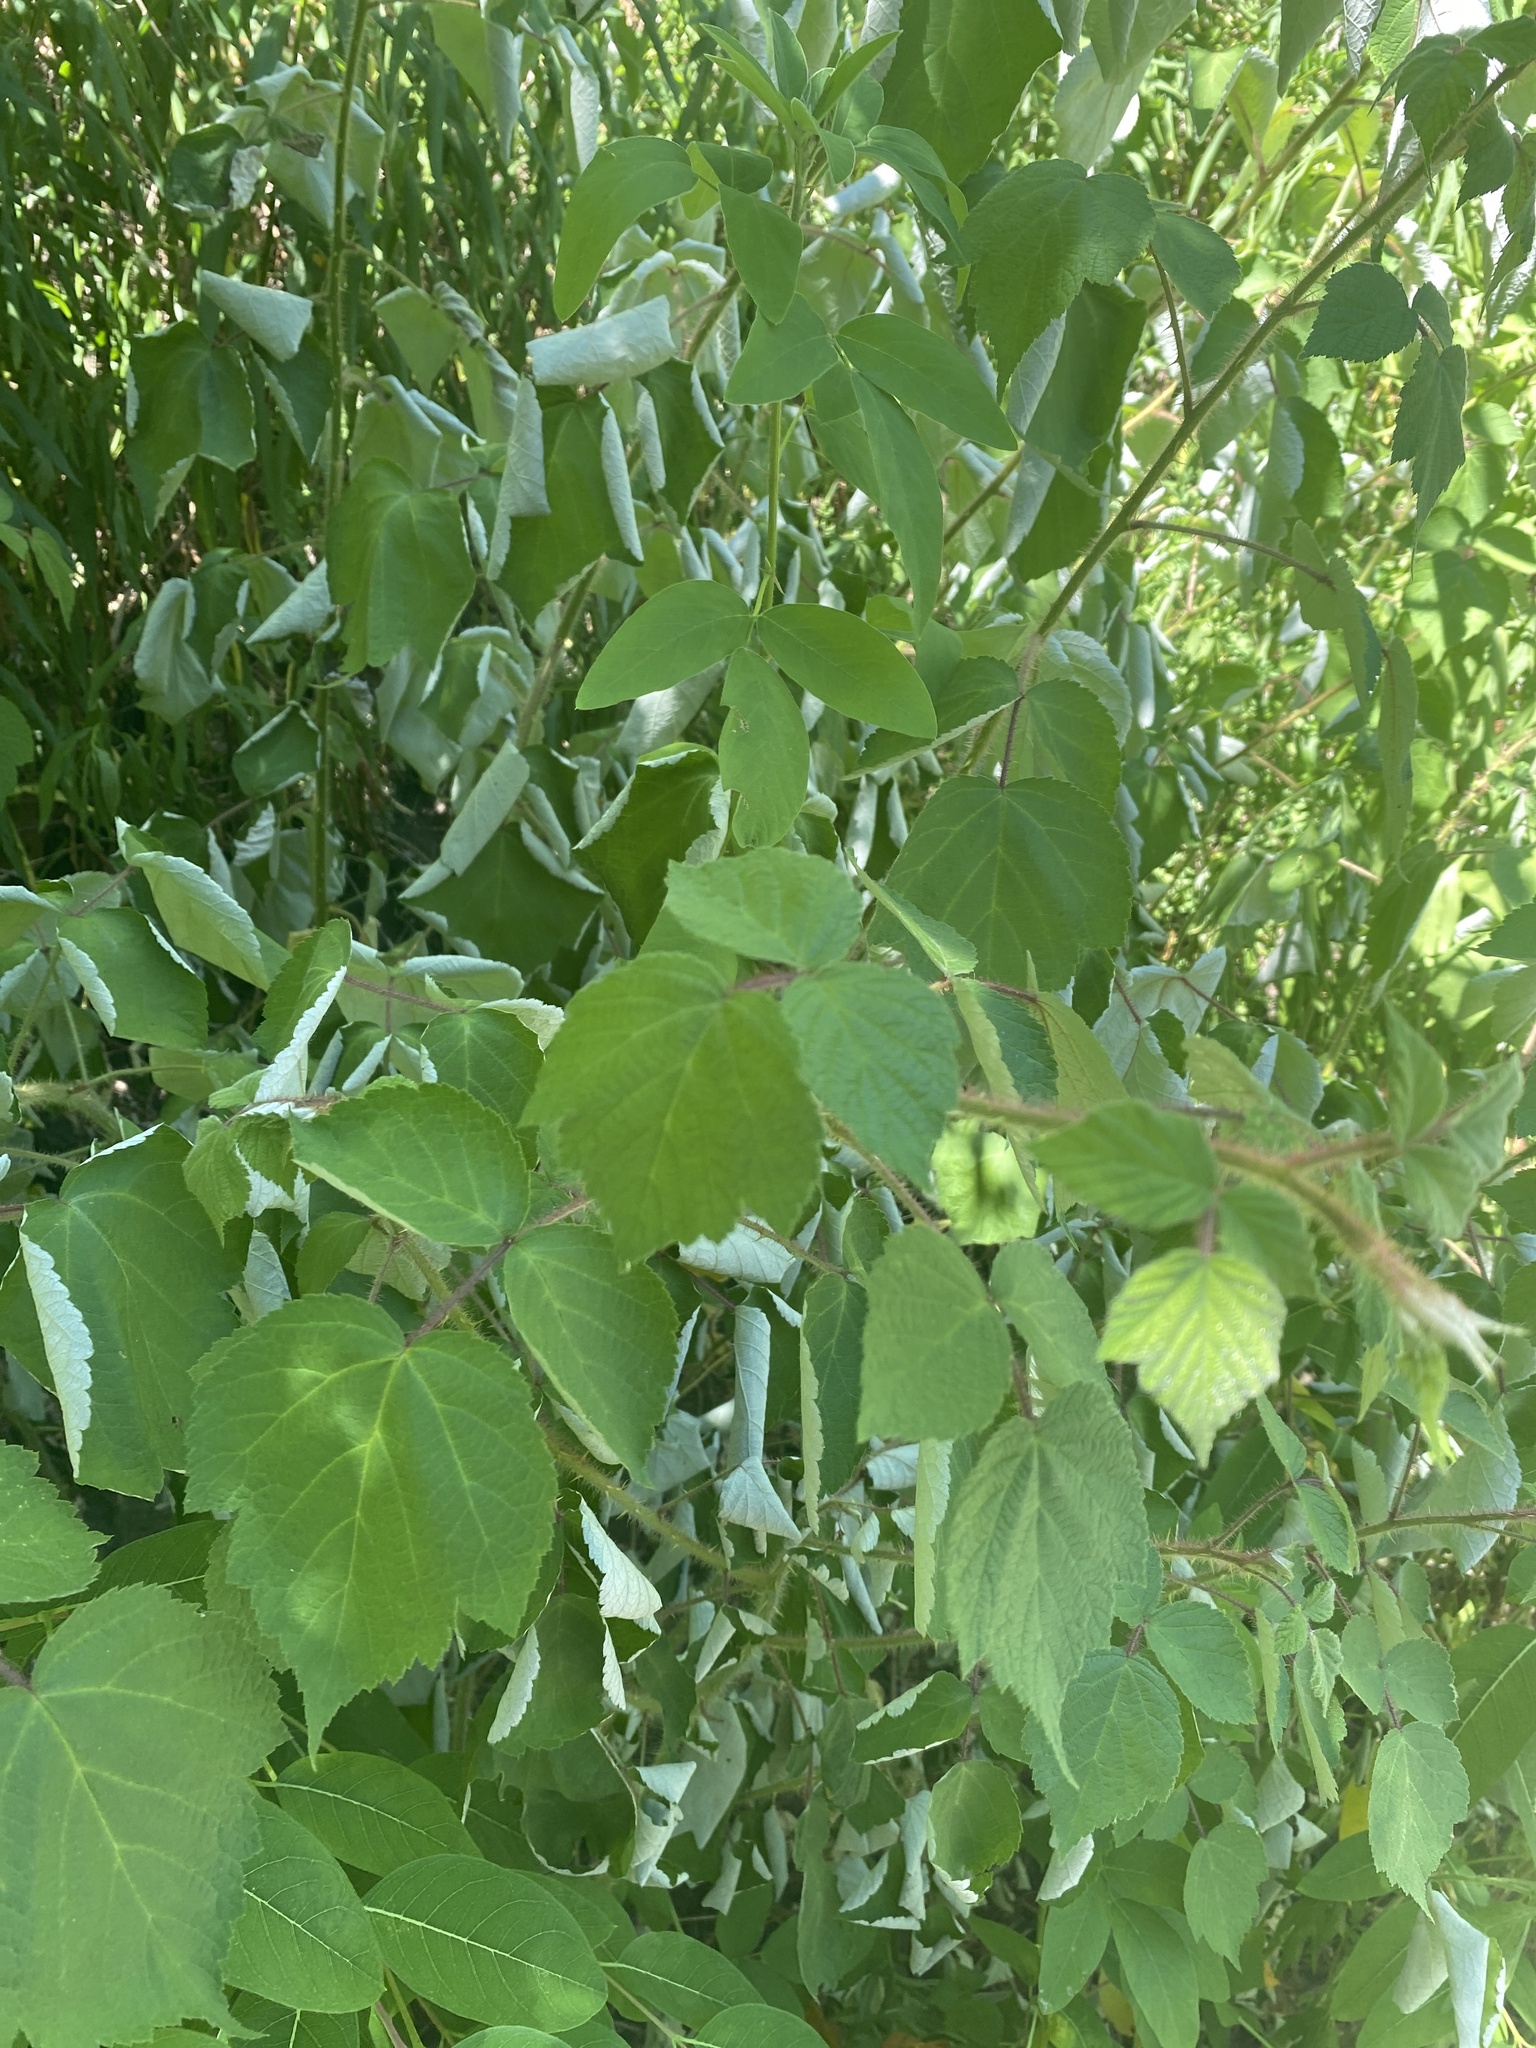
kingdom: Plantae
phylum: Tracheophyta
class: Magnoliopsida
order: Rosales
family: Rosaceae
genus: Rubus
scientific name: Rubus phoenicolasius
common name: Japanese wineberry
